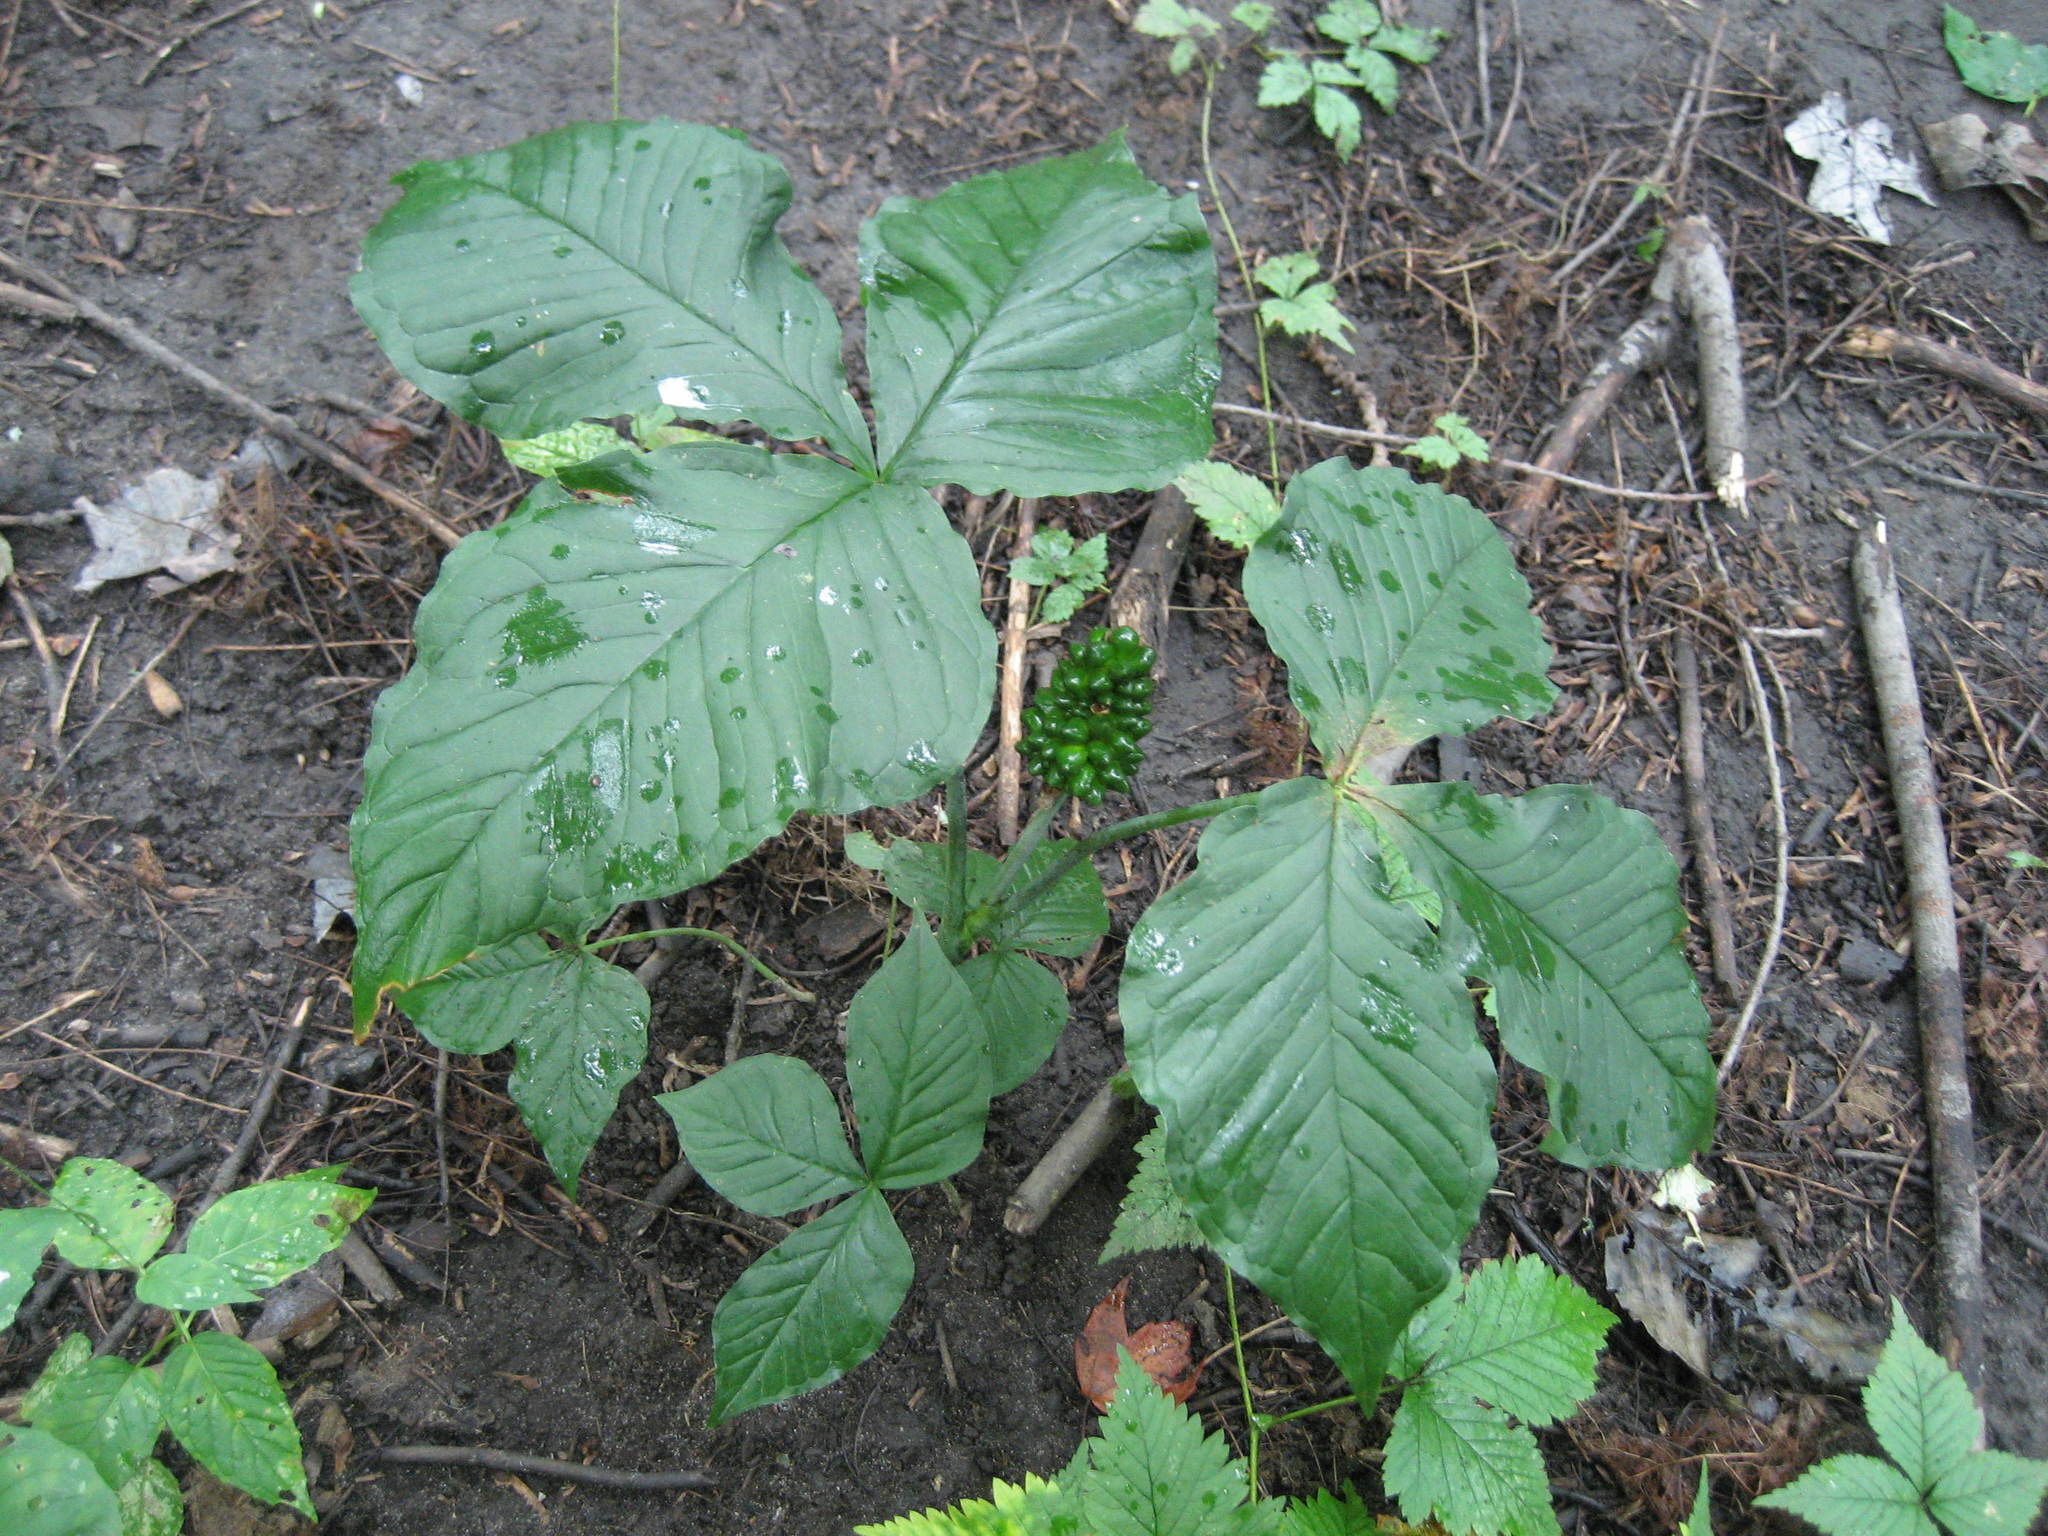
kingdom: Plantae
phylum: Tracheophyta
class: Liliopsida
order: Alismatales
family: Araceae
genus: Arisaema
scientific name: Arisaema triphyllum
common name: Jack-in-the-pulpit
